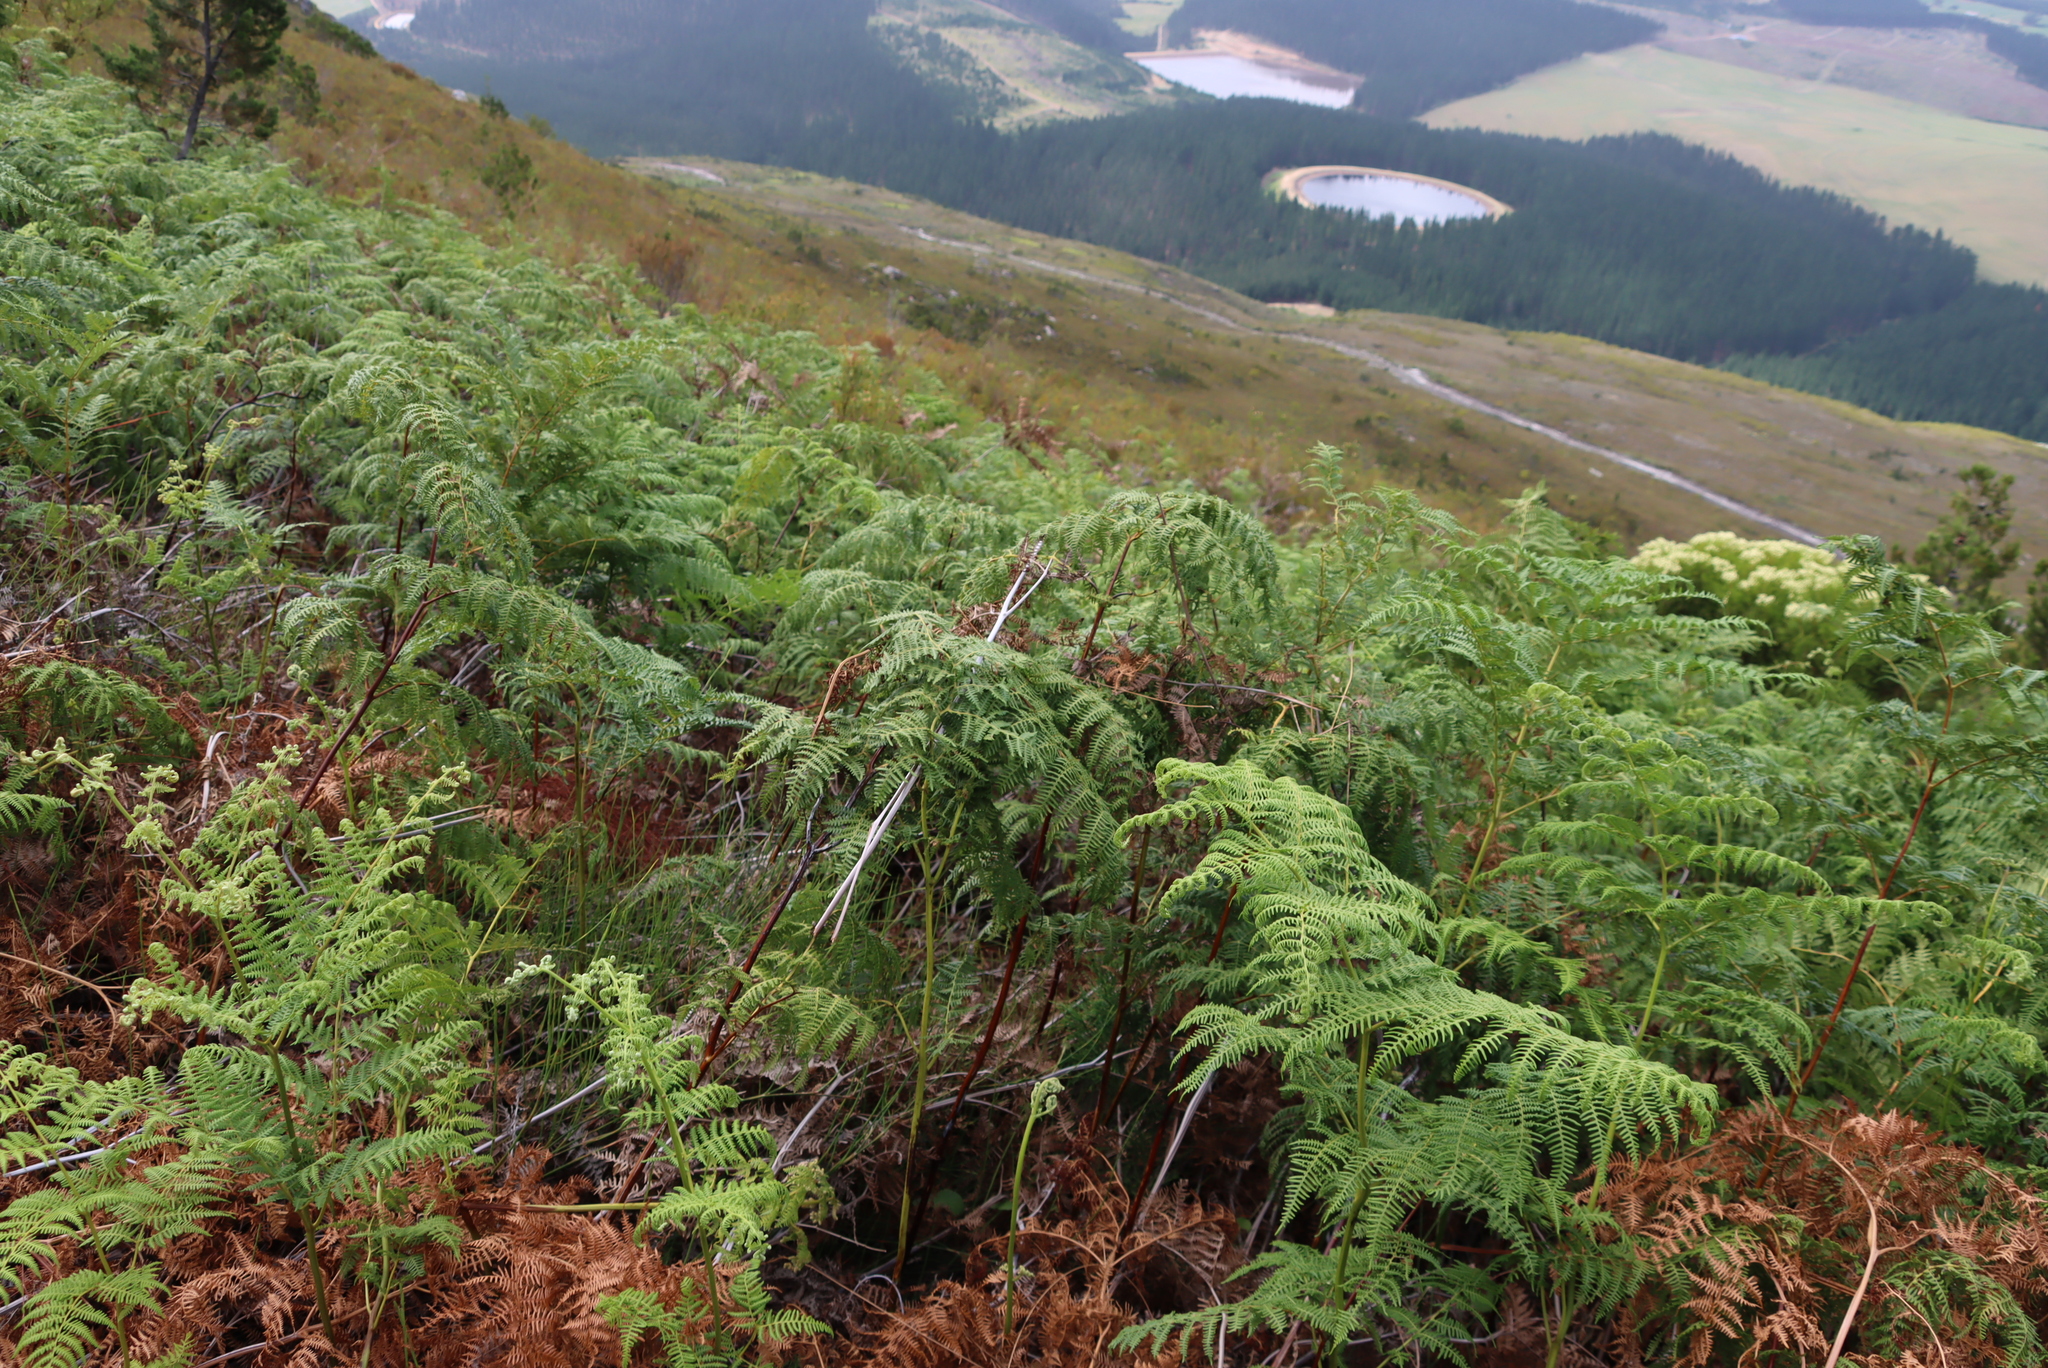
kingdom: Plantae
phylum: Tracheophyta
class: Polypodiopsida
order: Polypodiales
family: Dennstaedtiaceae
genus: Pteridium
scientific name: Pteridium aquilinum
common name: Bracken
